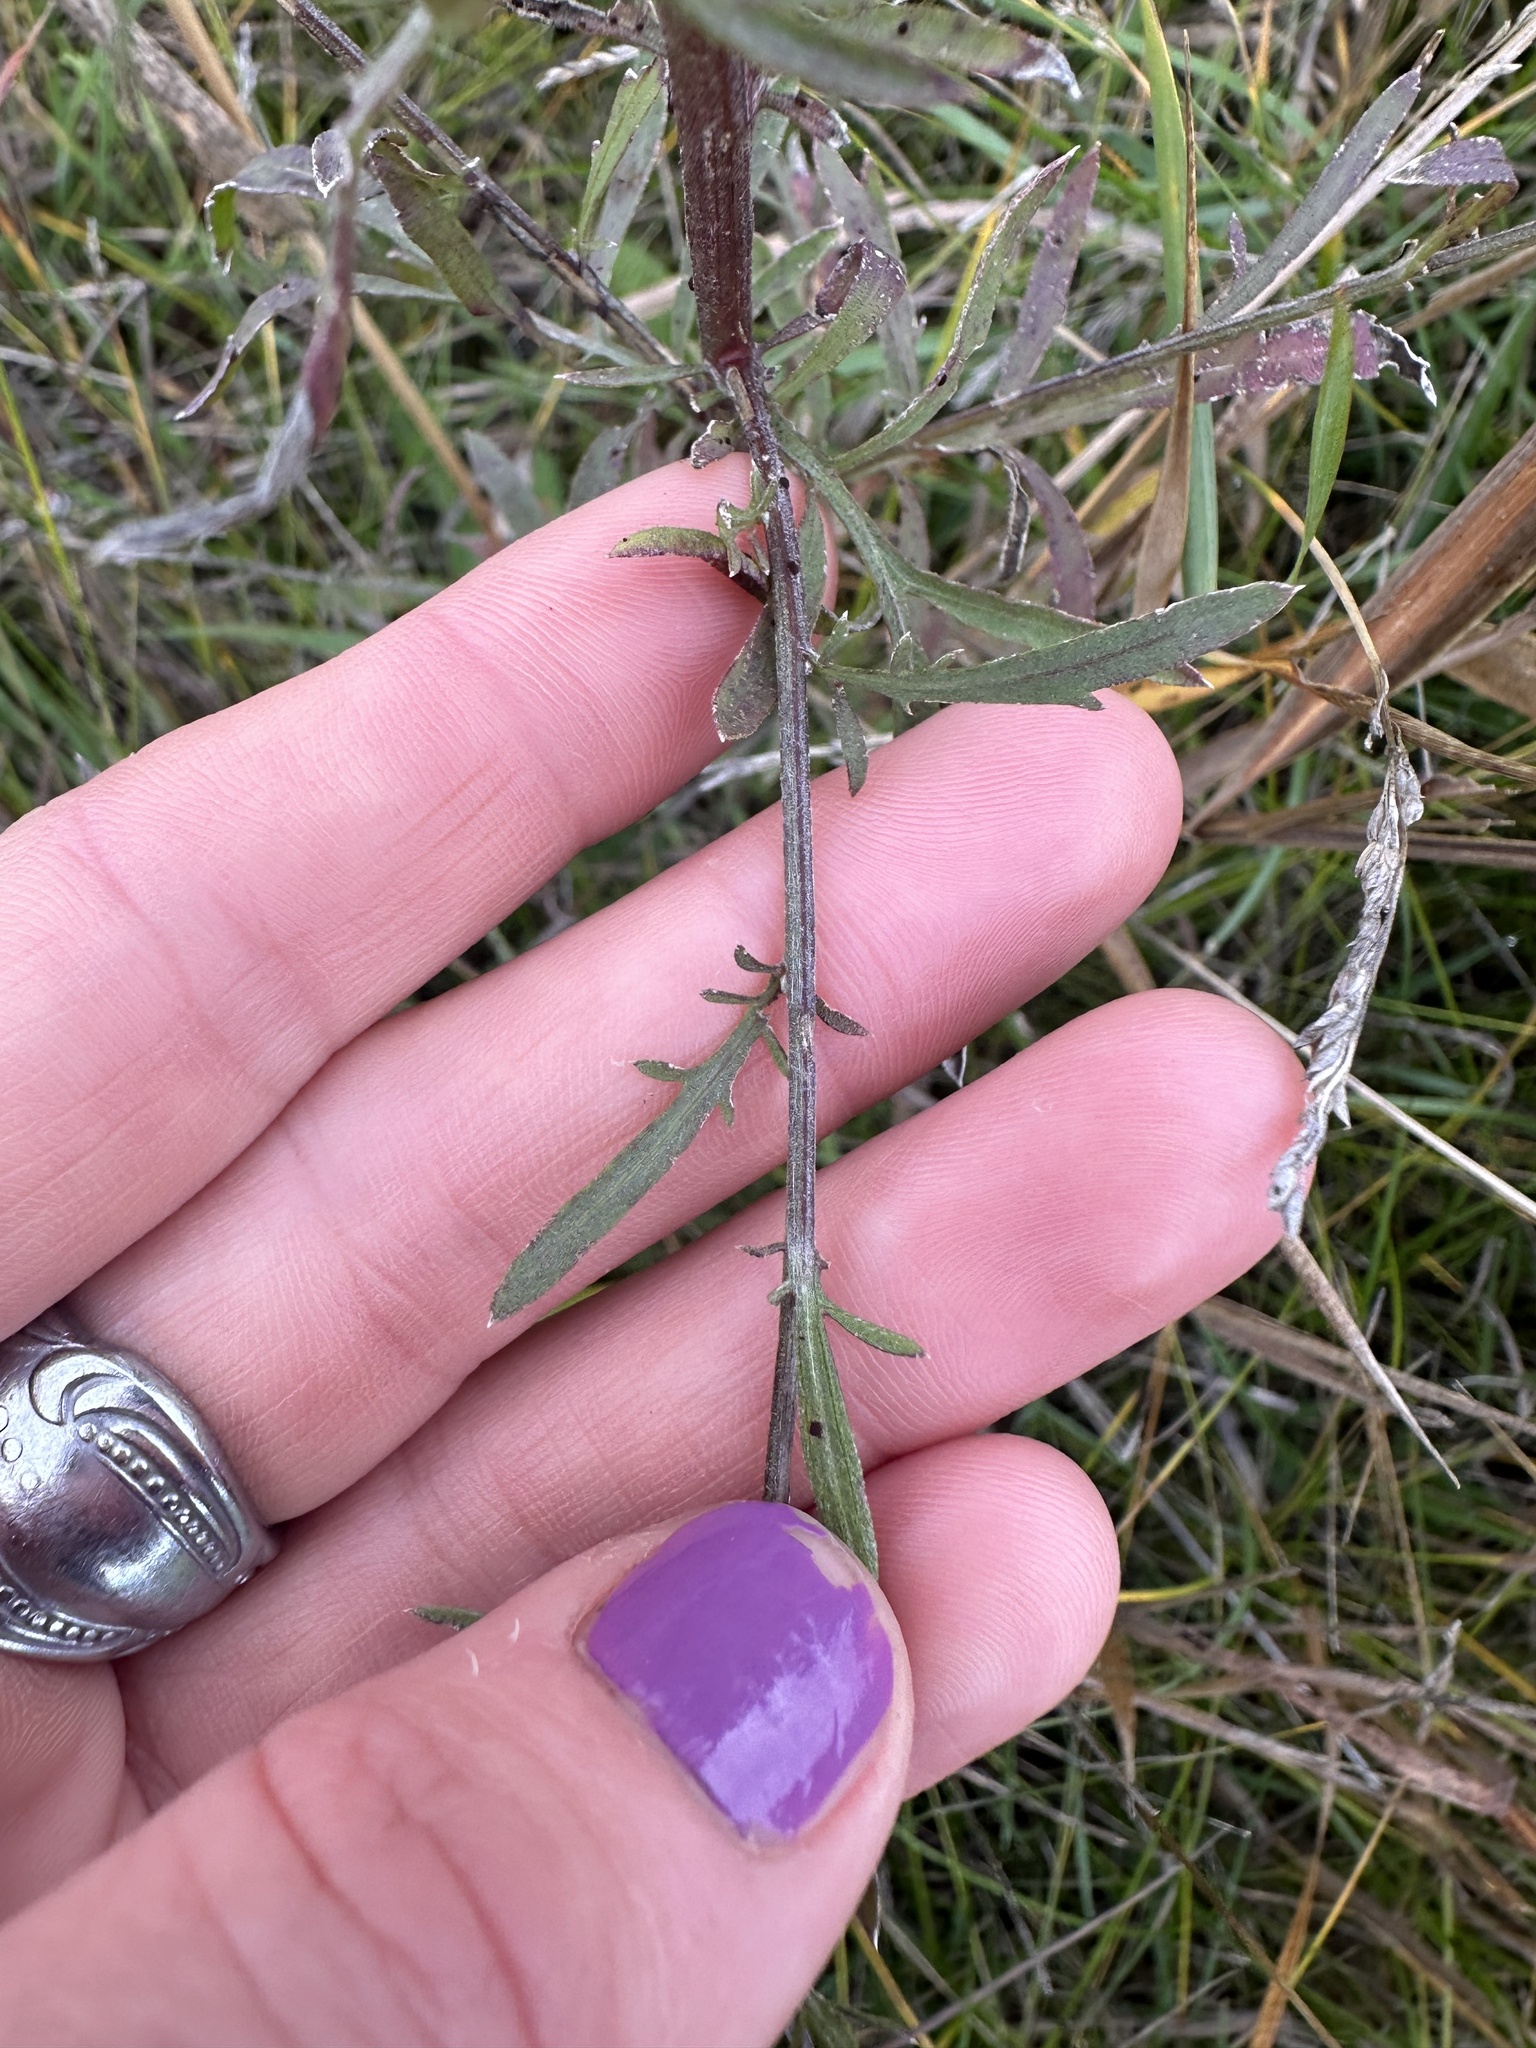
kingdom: Plantae
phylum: Tracheophyta
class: Magnoliopsida
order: Asterales
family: Asteraceae
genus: Centaurea
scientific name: Centaurea stoebe
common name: Spotted knapweed
